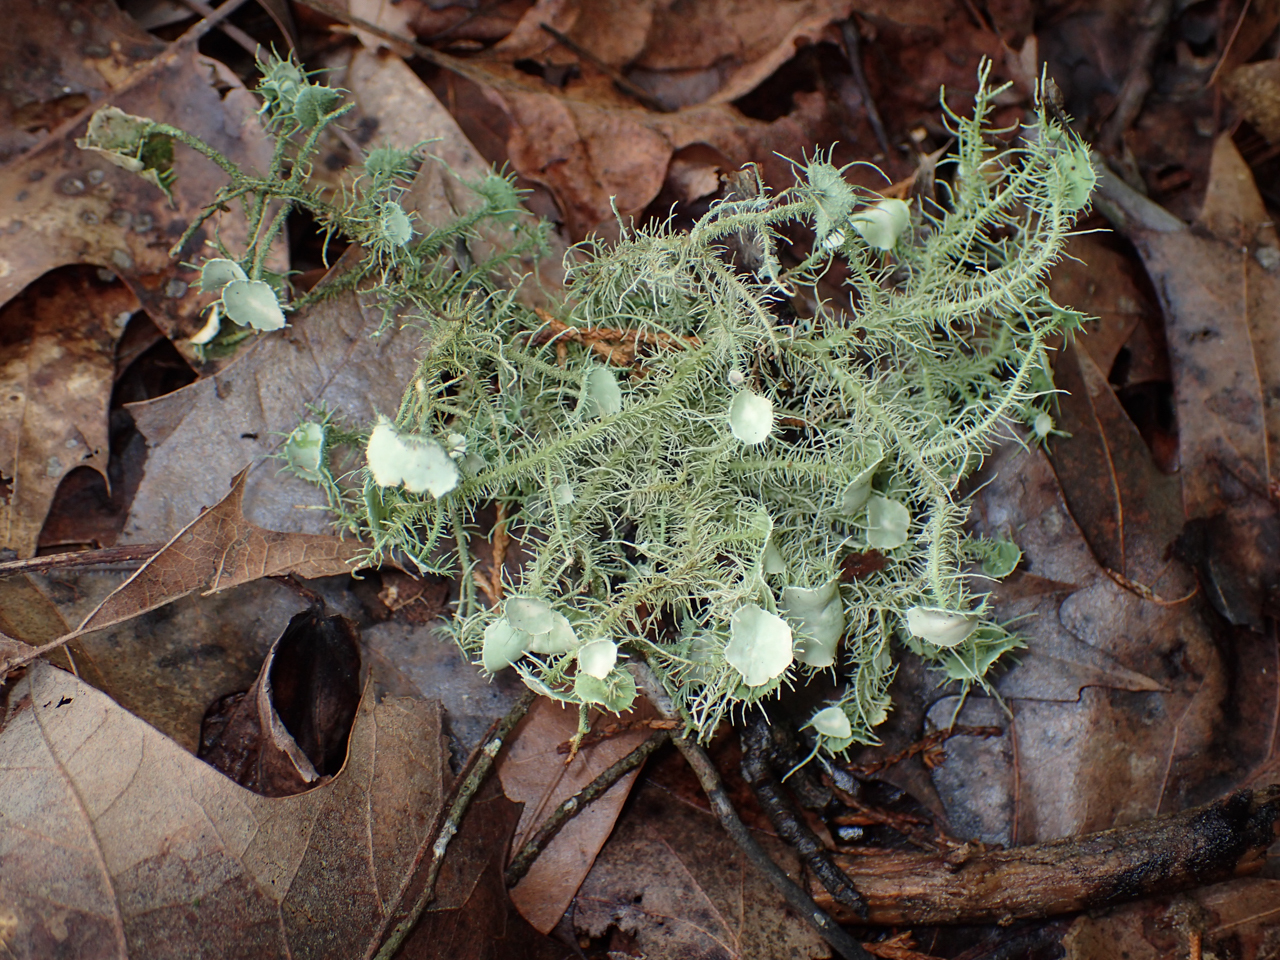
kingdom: Fungi
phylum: Ascomycota
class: Lecanoromycetes
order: Lecanorales
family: Parmeliaceae
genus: Usnea
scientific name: Usnea strigosa
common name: Bushy beard lichen
